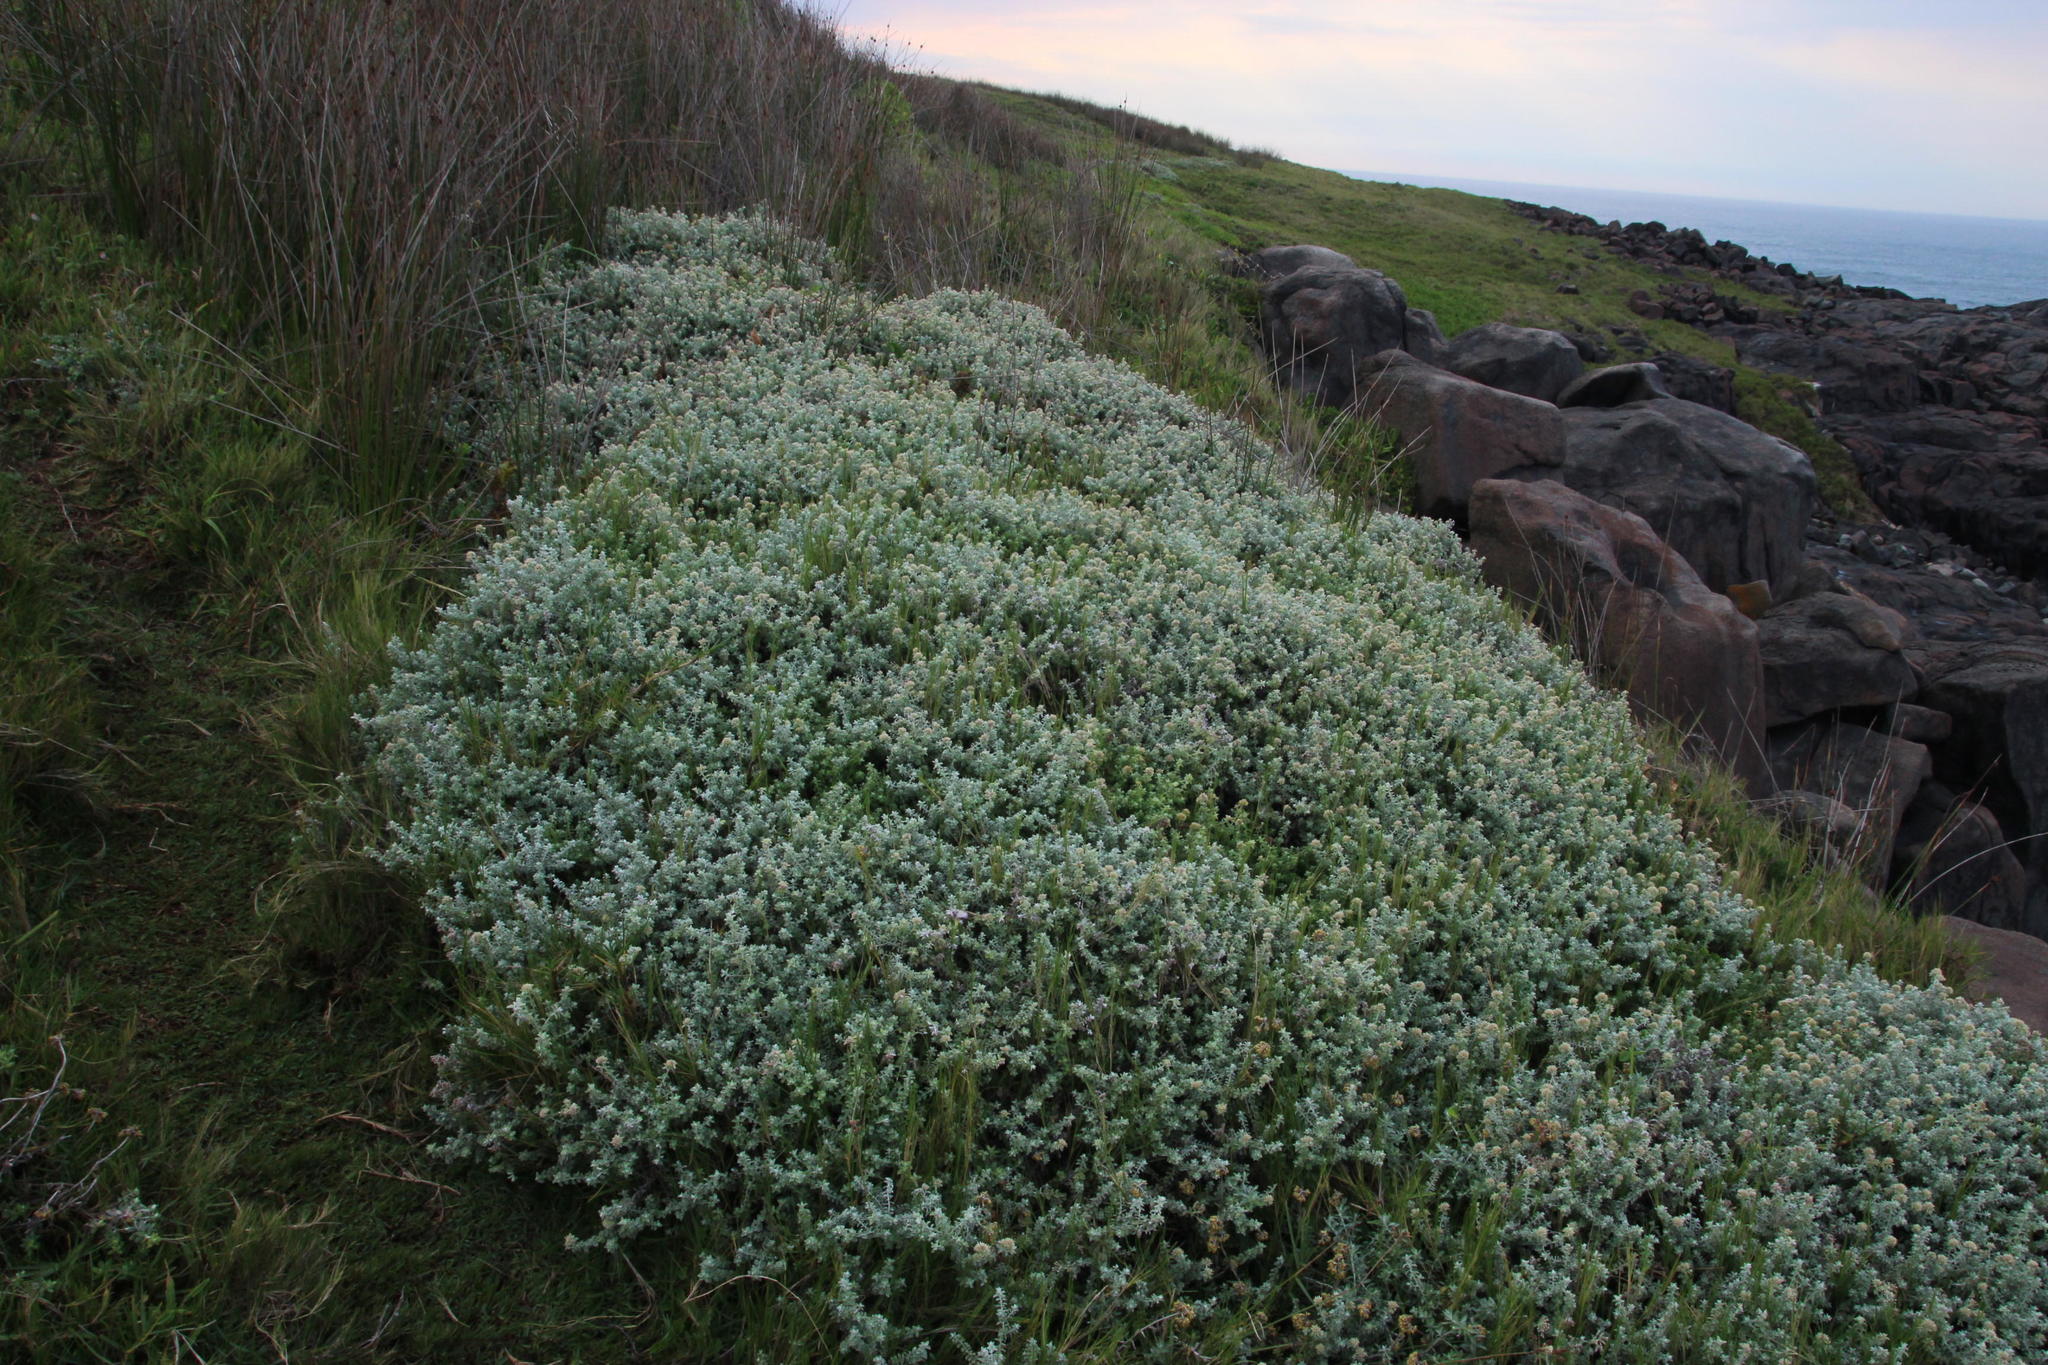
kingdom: Plantae
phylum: Tracheophyta
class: Magnoliopsida
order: Asterales
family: Asteraceae
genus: Plecostachys
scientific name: Plecostachys serpyllifolia
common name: Petite licorice
